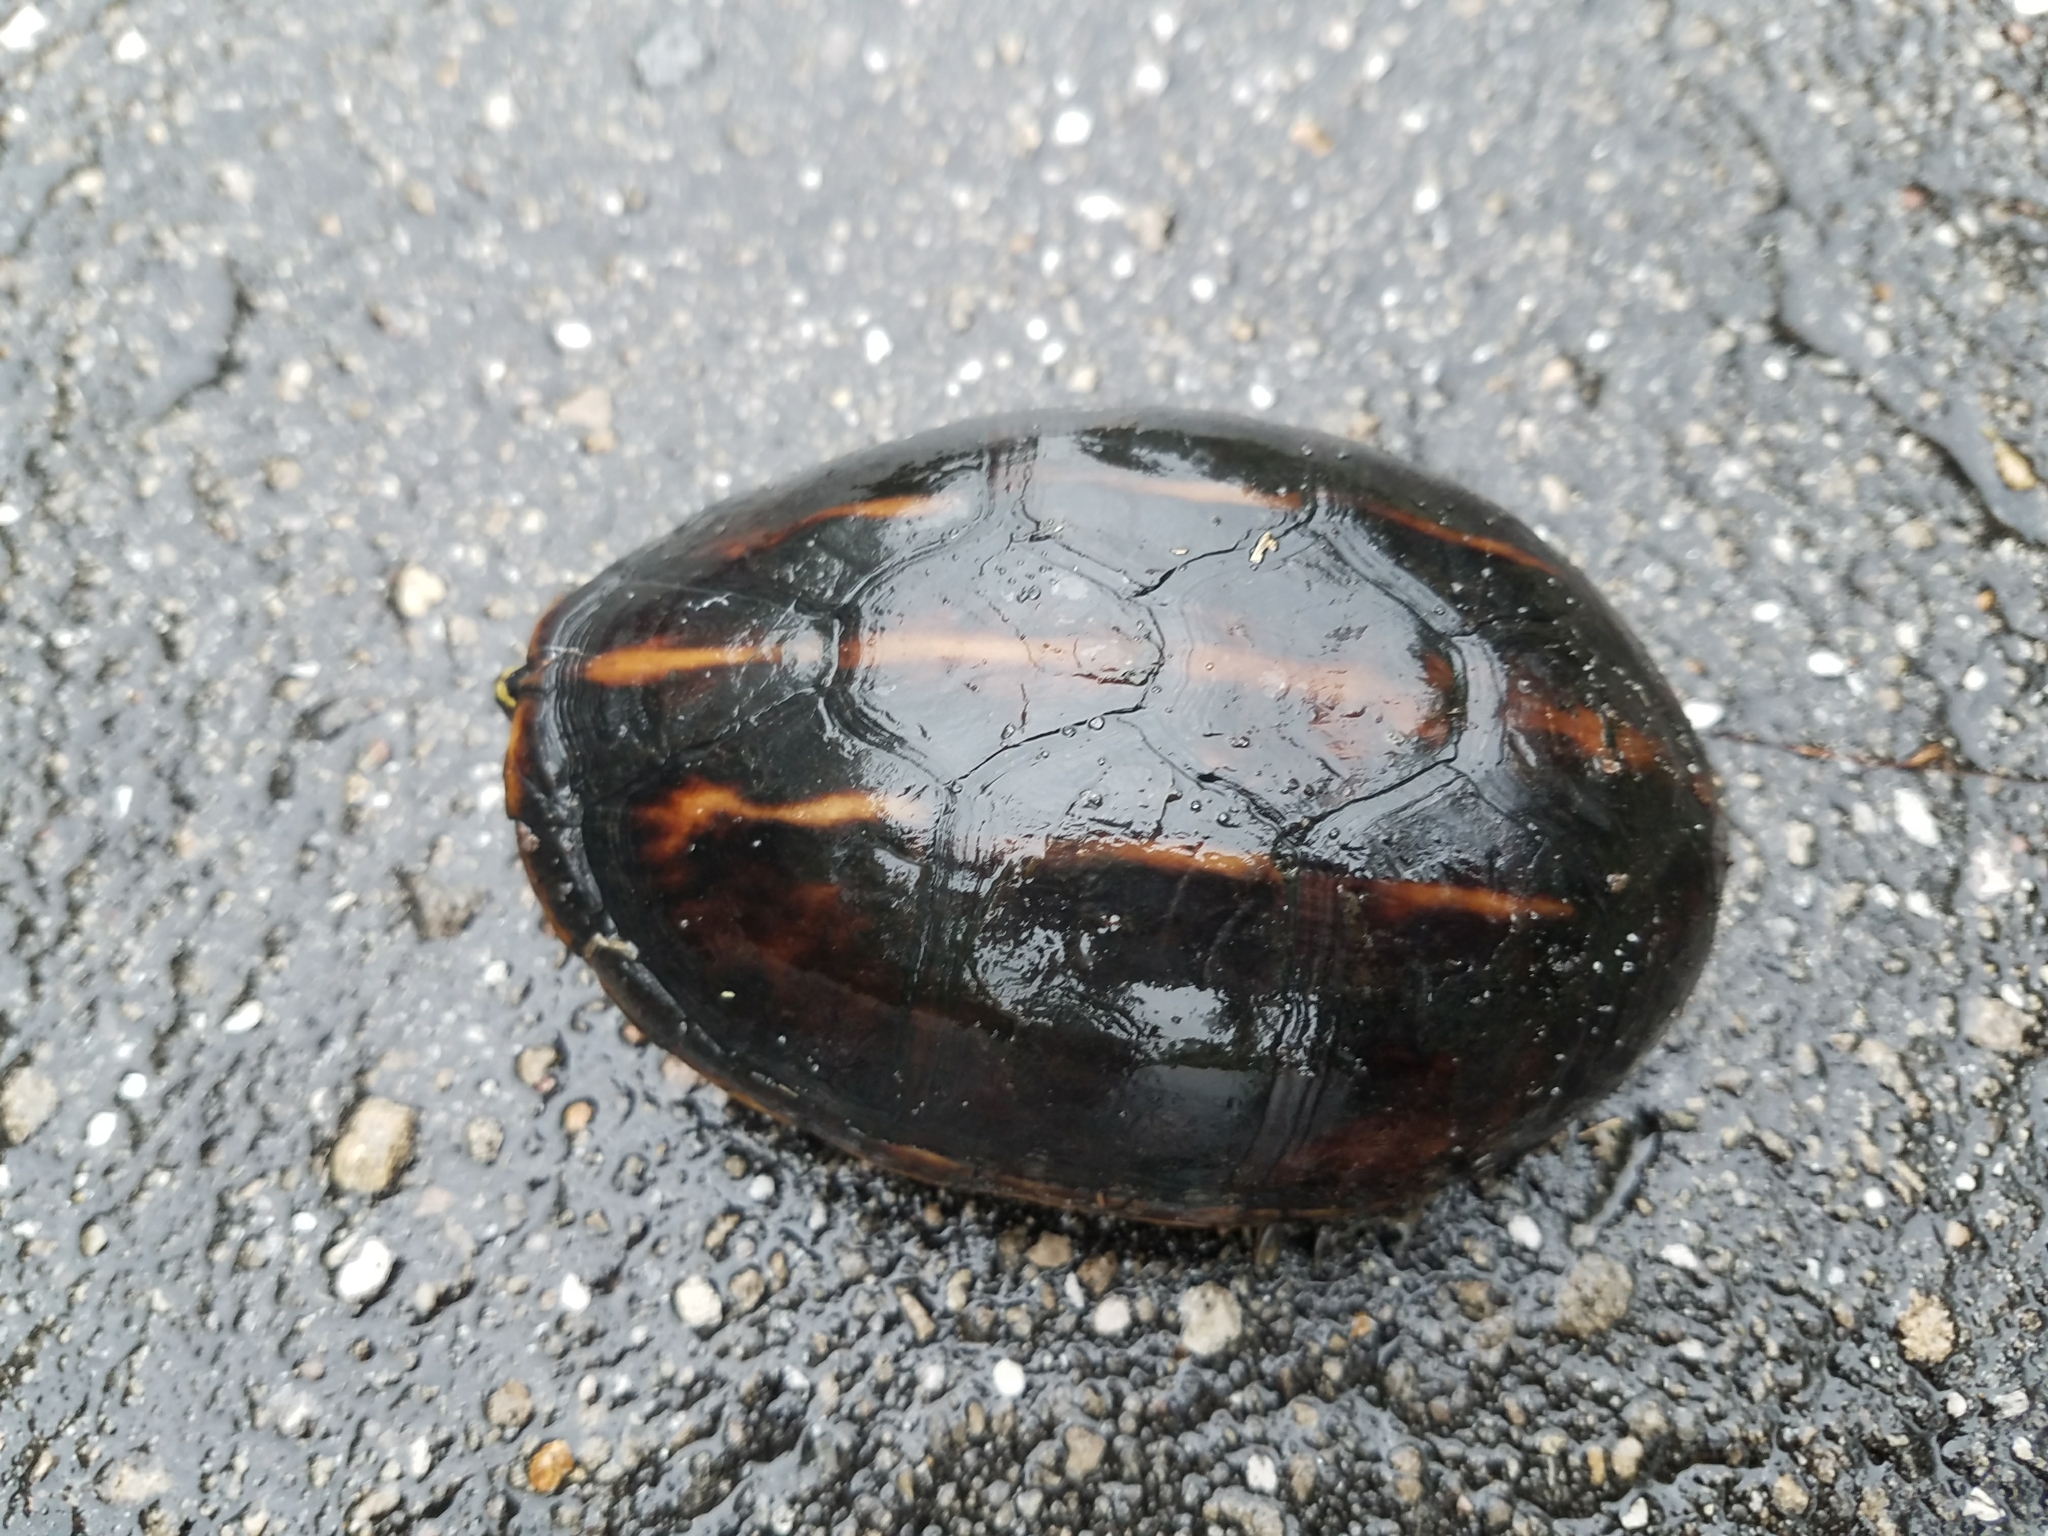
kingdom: Animalia
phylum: Chordata
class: Testudines
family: Kinosternidae
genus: Kinosternon
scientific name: Kinosternon baurii
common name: Striped mud turtle
